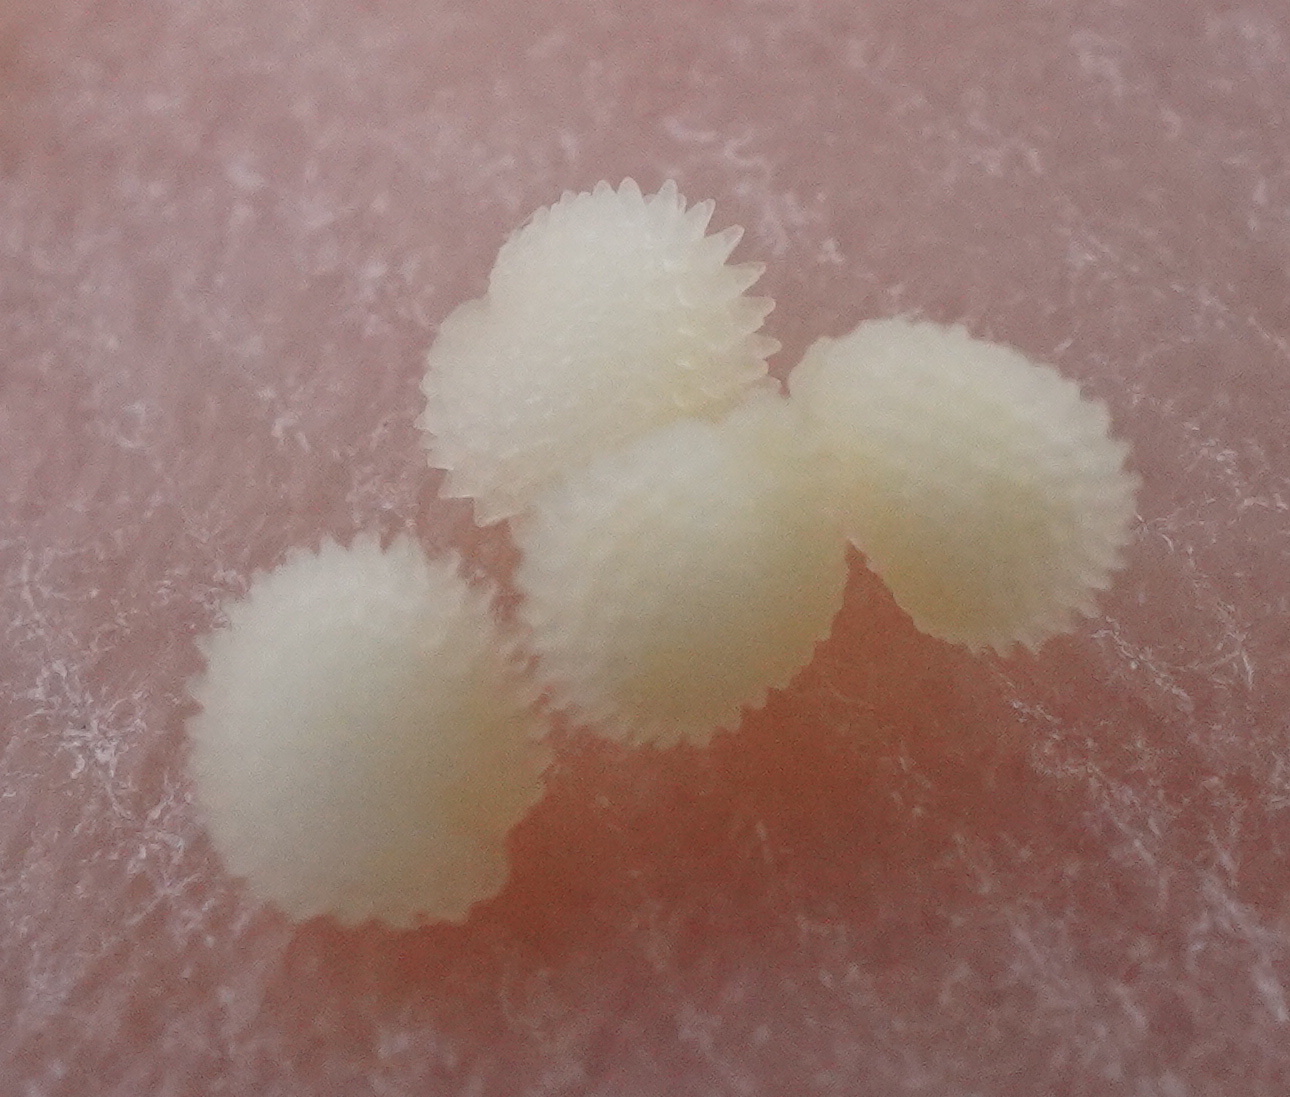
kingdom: Plantae
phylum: Tracheophyta
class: Magnoliopsida
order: Caryophyllales
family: Caryophyllaceae
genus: Stellaria
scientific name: Stellaria ruderalis
